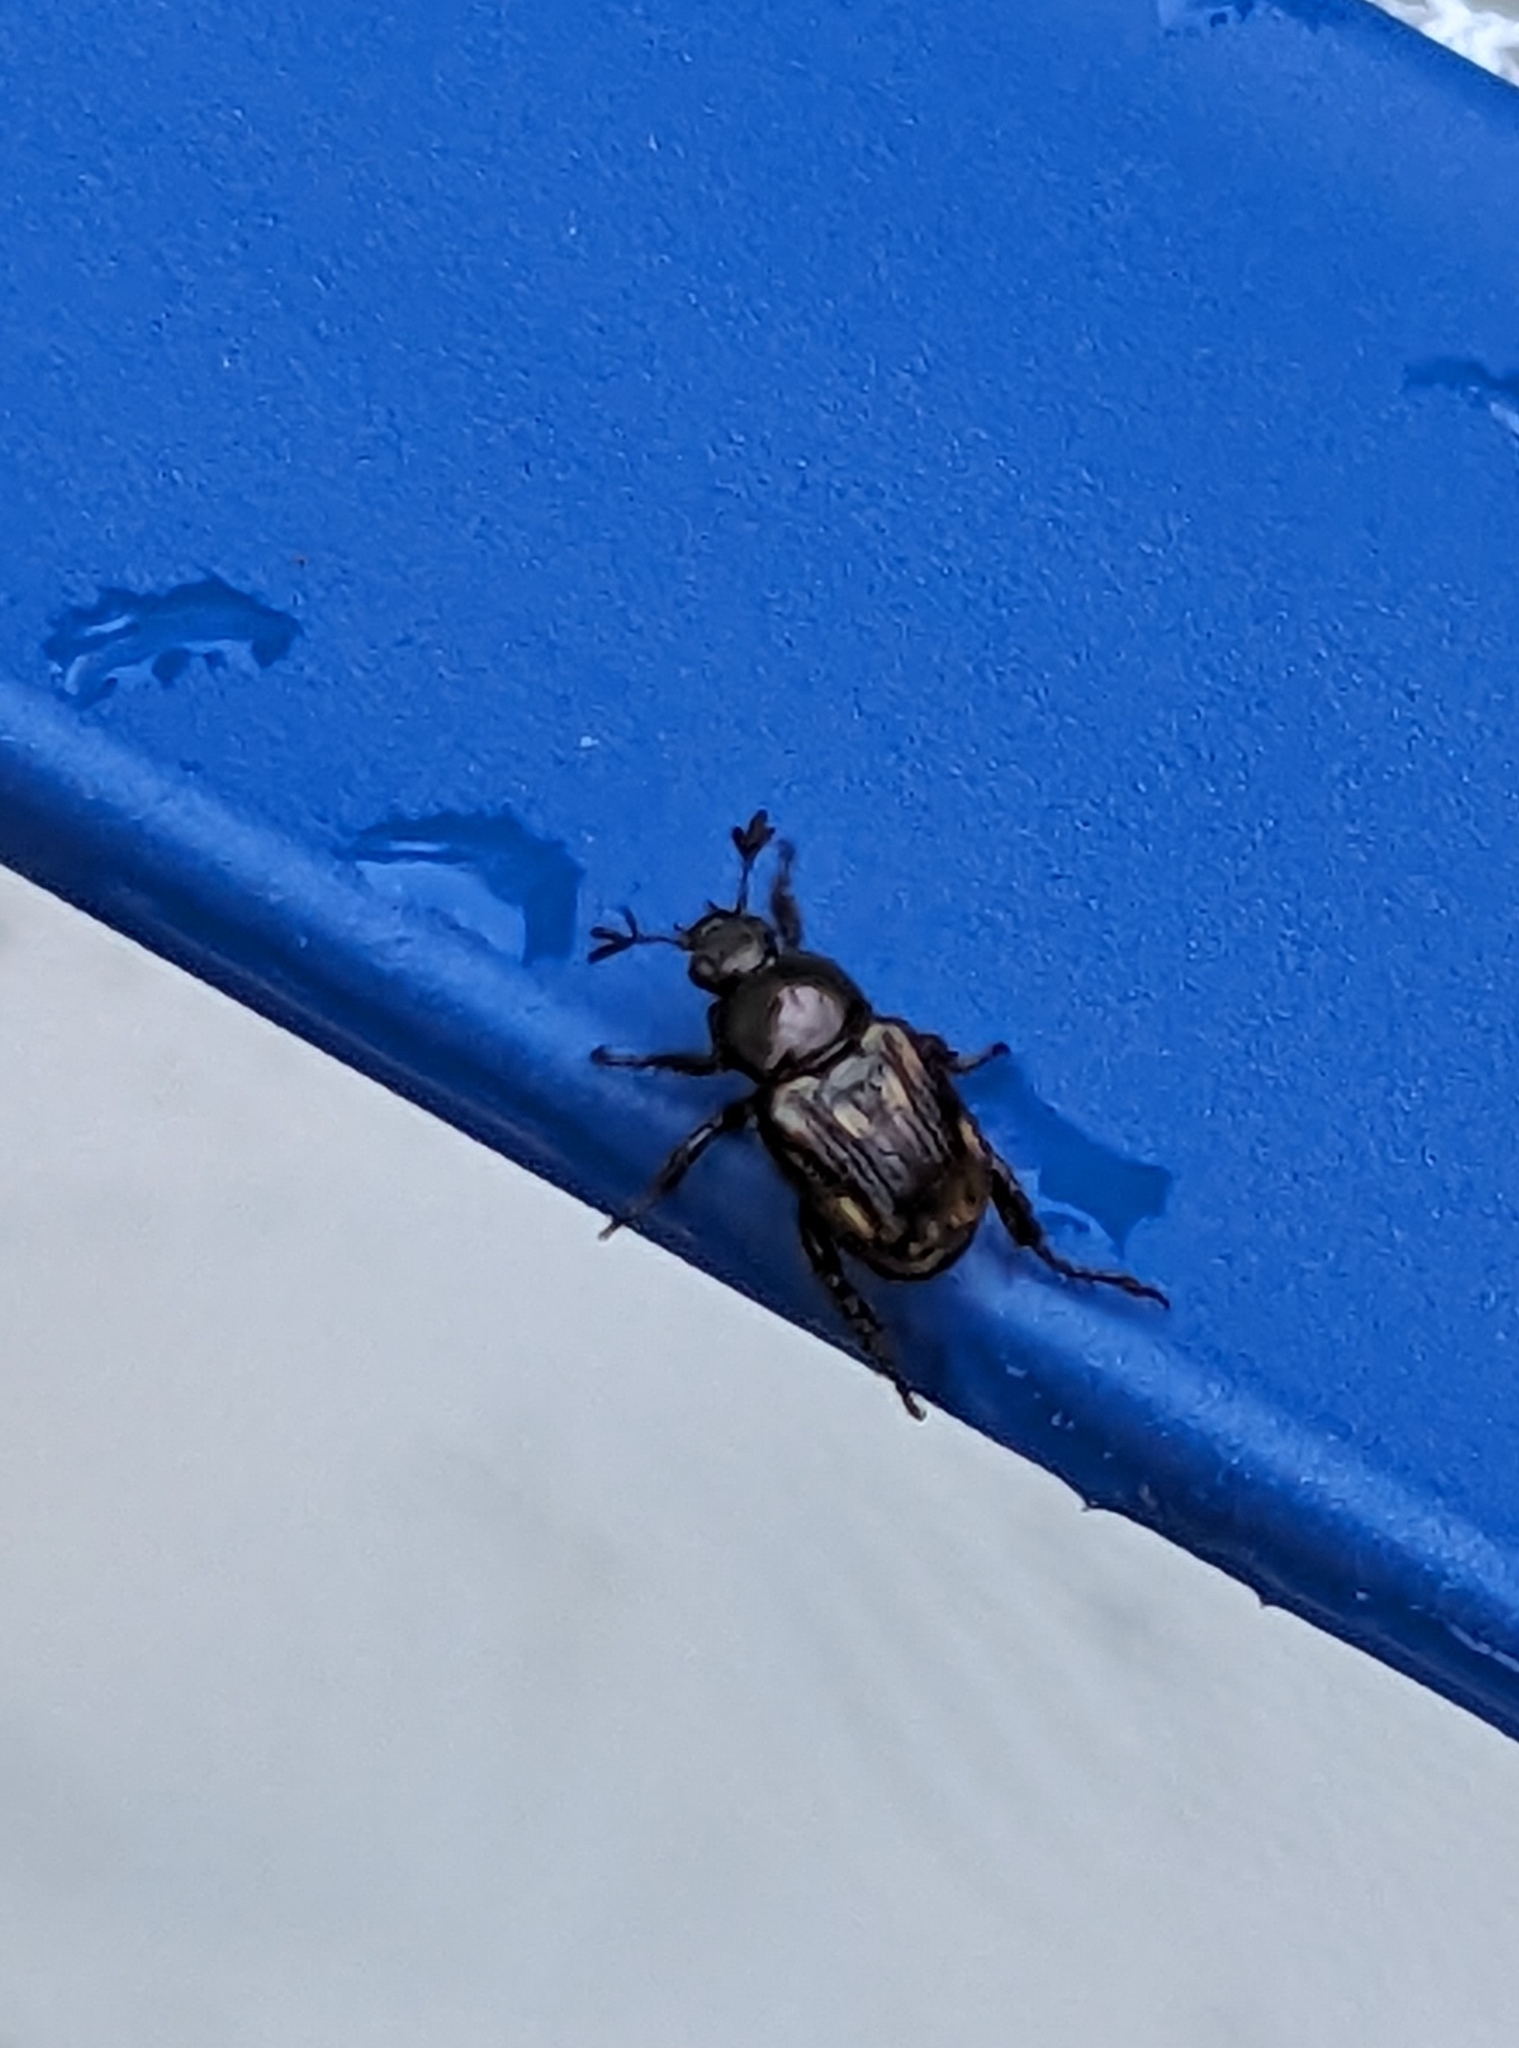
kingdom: Animalia
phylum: Arthropoda
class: Insecta
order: Coleoptera
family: Scarabaeidae
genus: Exomala
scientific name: Exomala orientalis
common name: Oriental beetle
